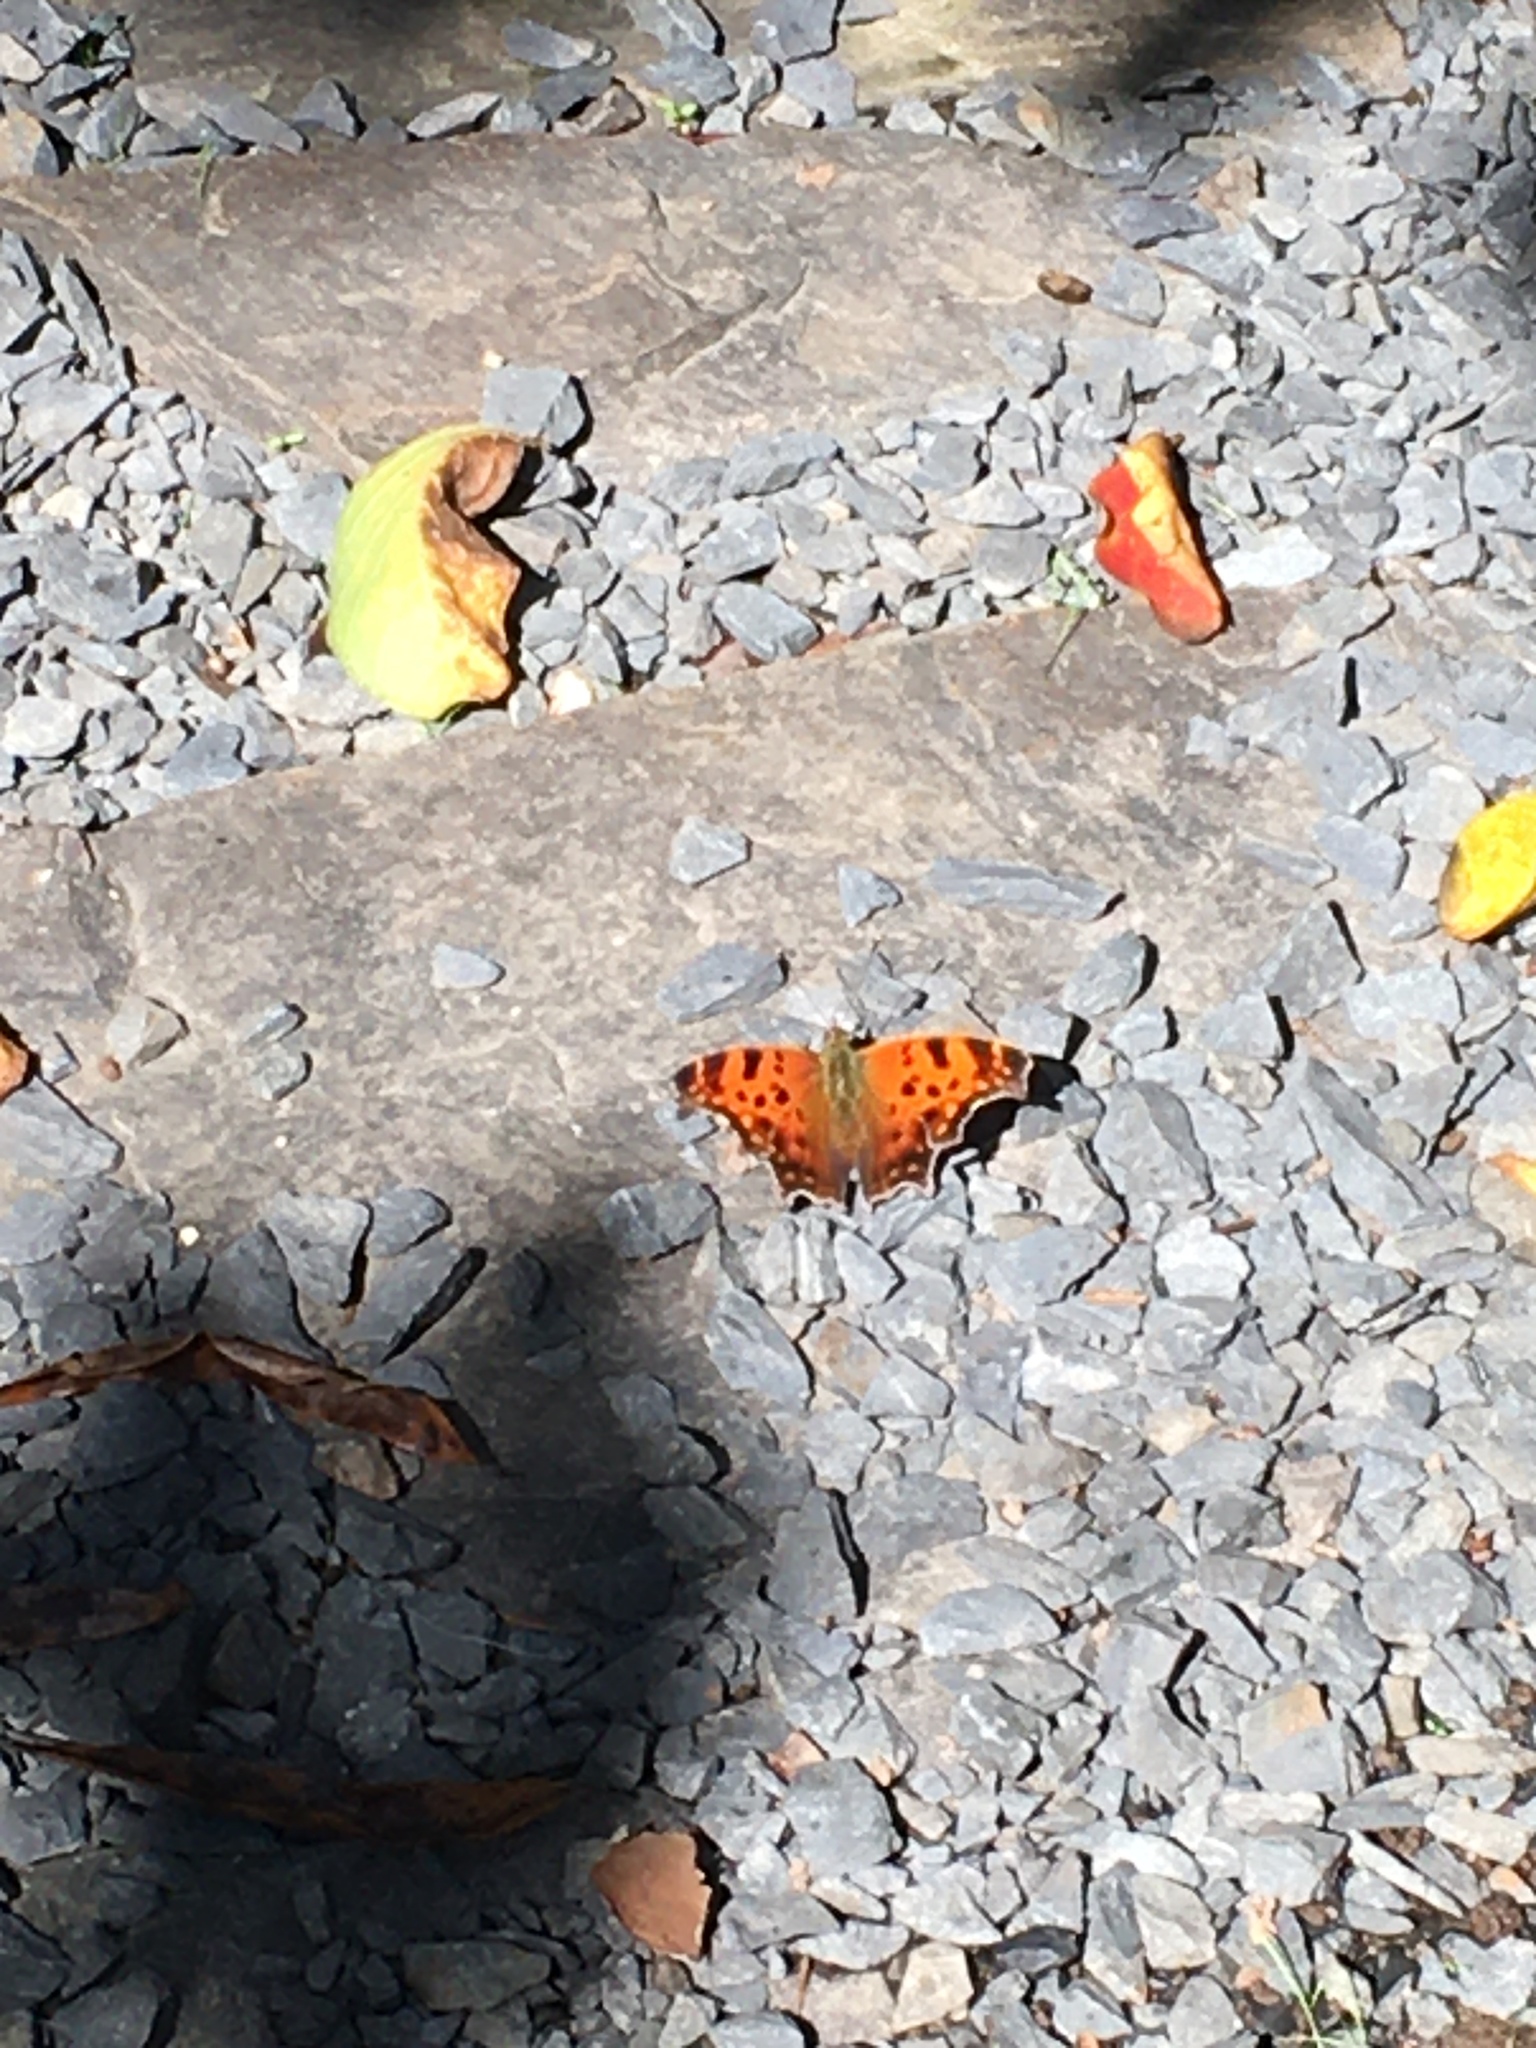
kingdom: Animalia
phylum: Arthropoda
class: Insecta
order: Lepidoptera
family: Nymphalidae
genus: Polygonia
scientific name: Polygonia comma
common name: Eastern comma
